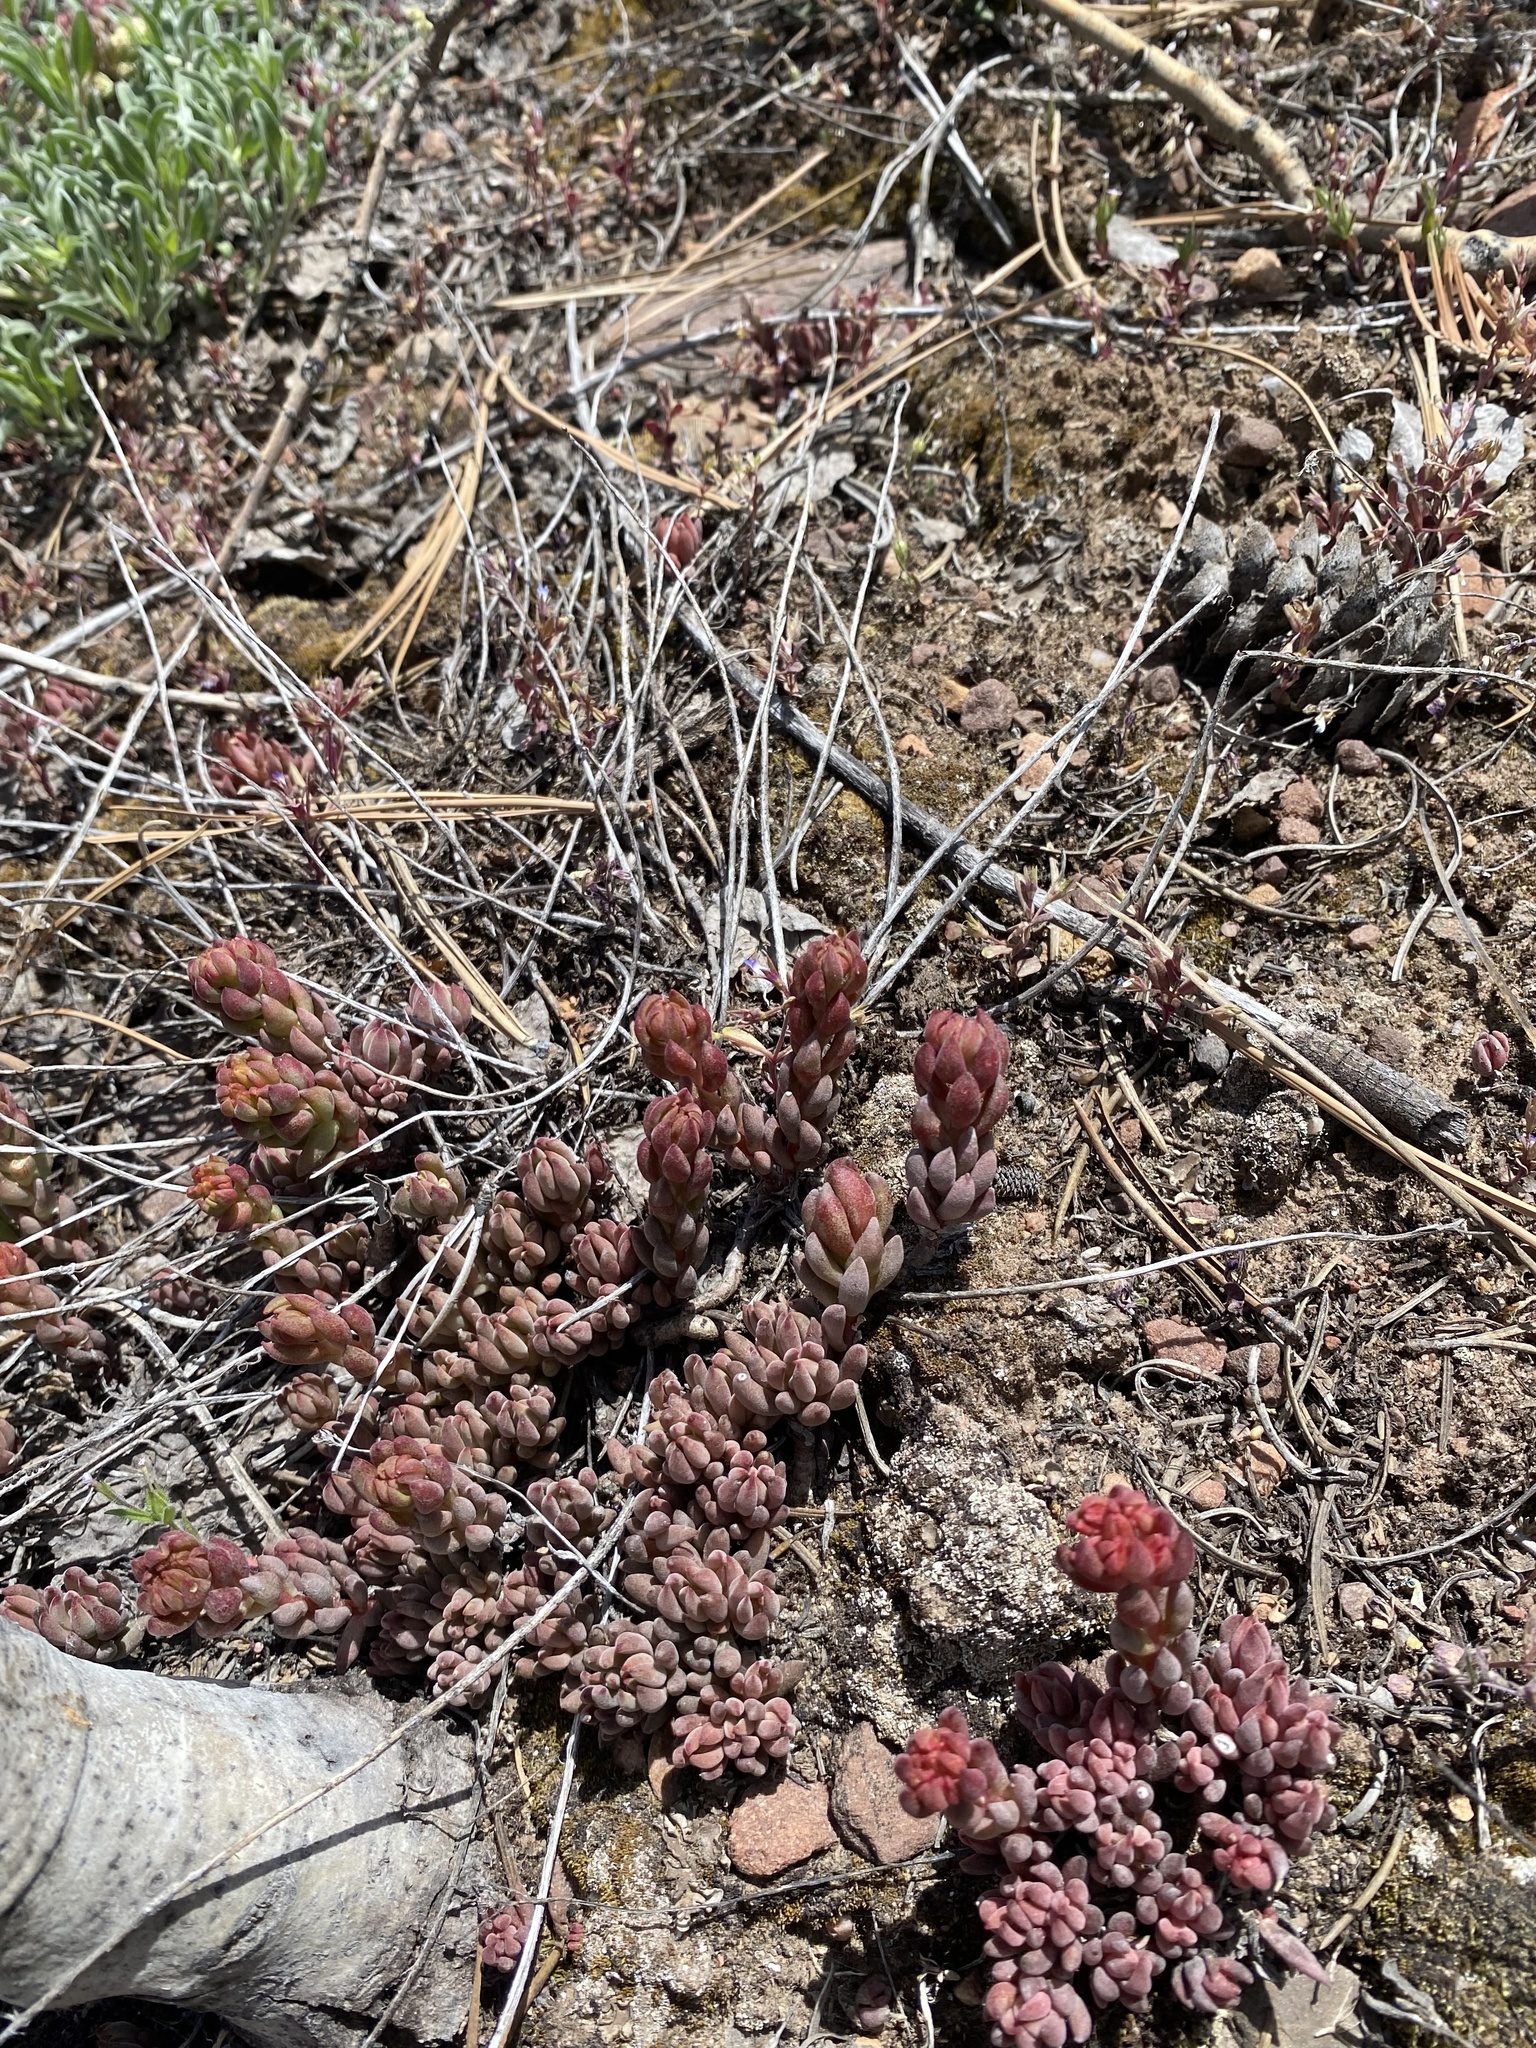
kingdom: Plantae
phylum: Tracheophyta
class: Magnoliopsida
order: Saxifragales
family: Crassulaceae
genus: Sedum
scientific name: Sedum lanceolatum
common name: Common stonecrop
